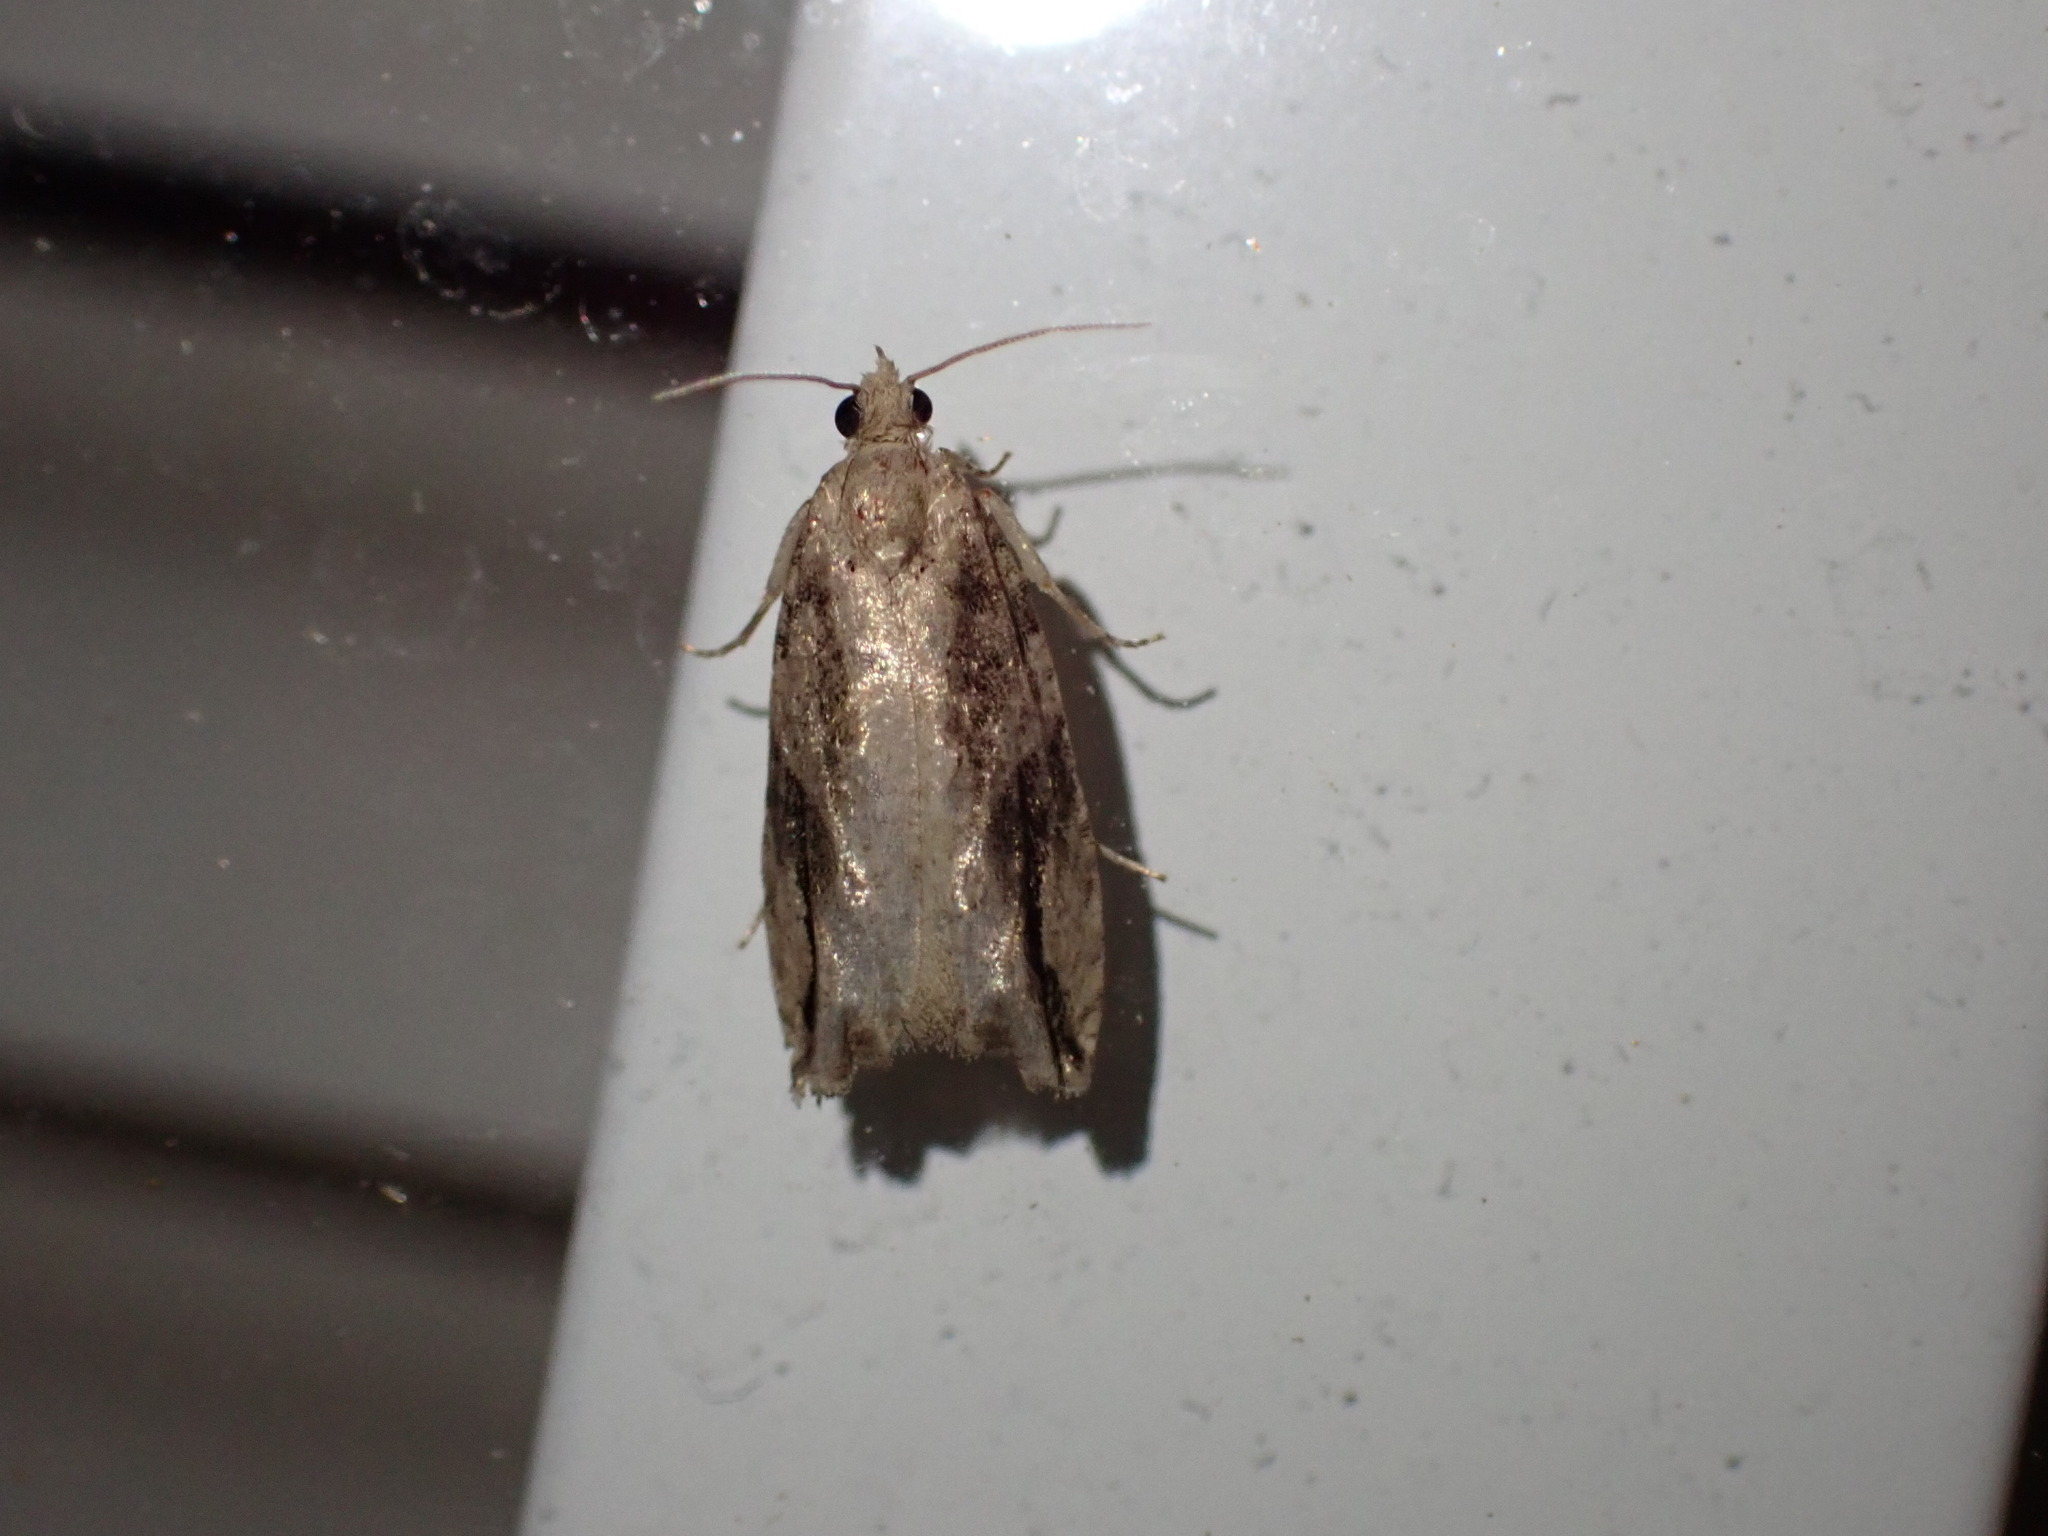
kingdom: Animalia
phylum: Arthropoda
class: Insecta
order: Lepidoptera
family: Tortricidae
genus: Proteoteras
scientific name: Proteoteras crescentana
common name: Black-crescent proteoteras moth
